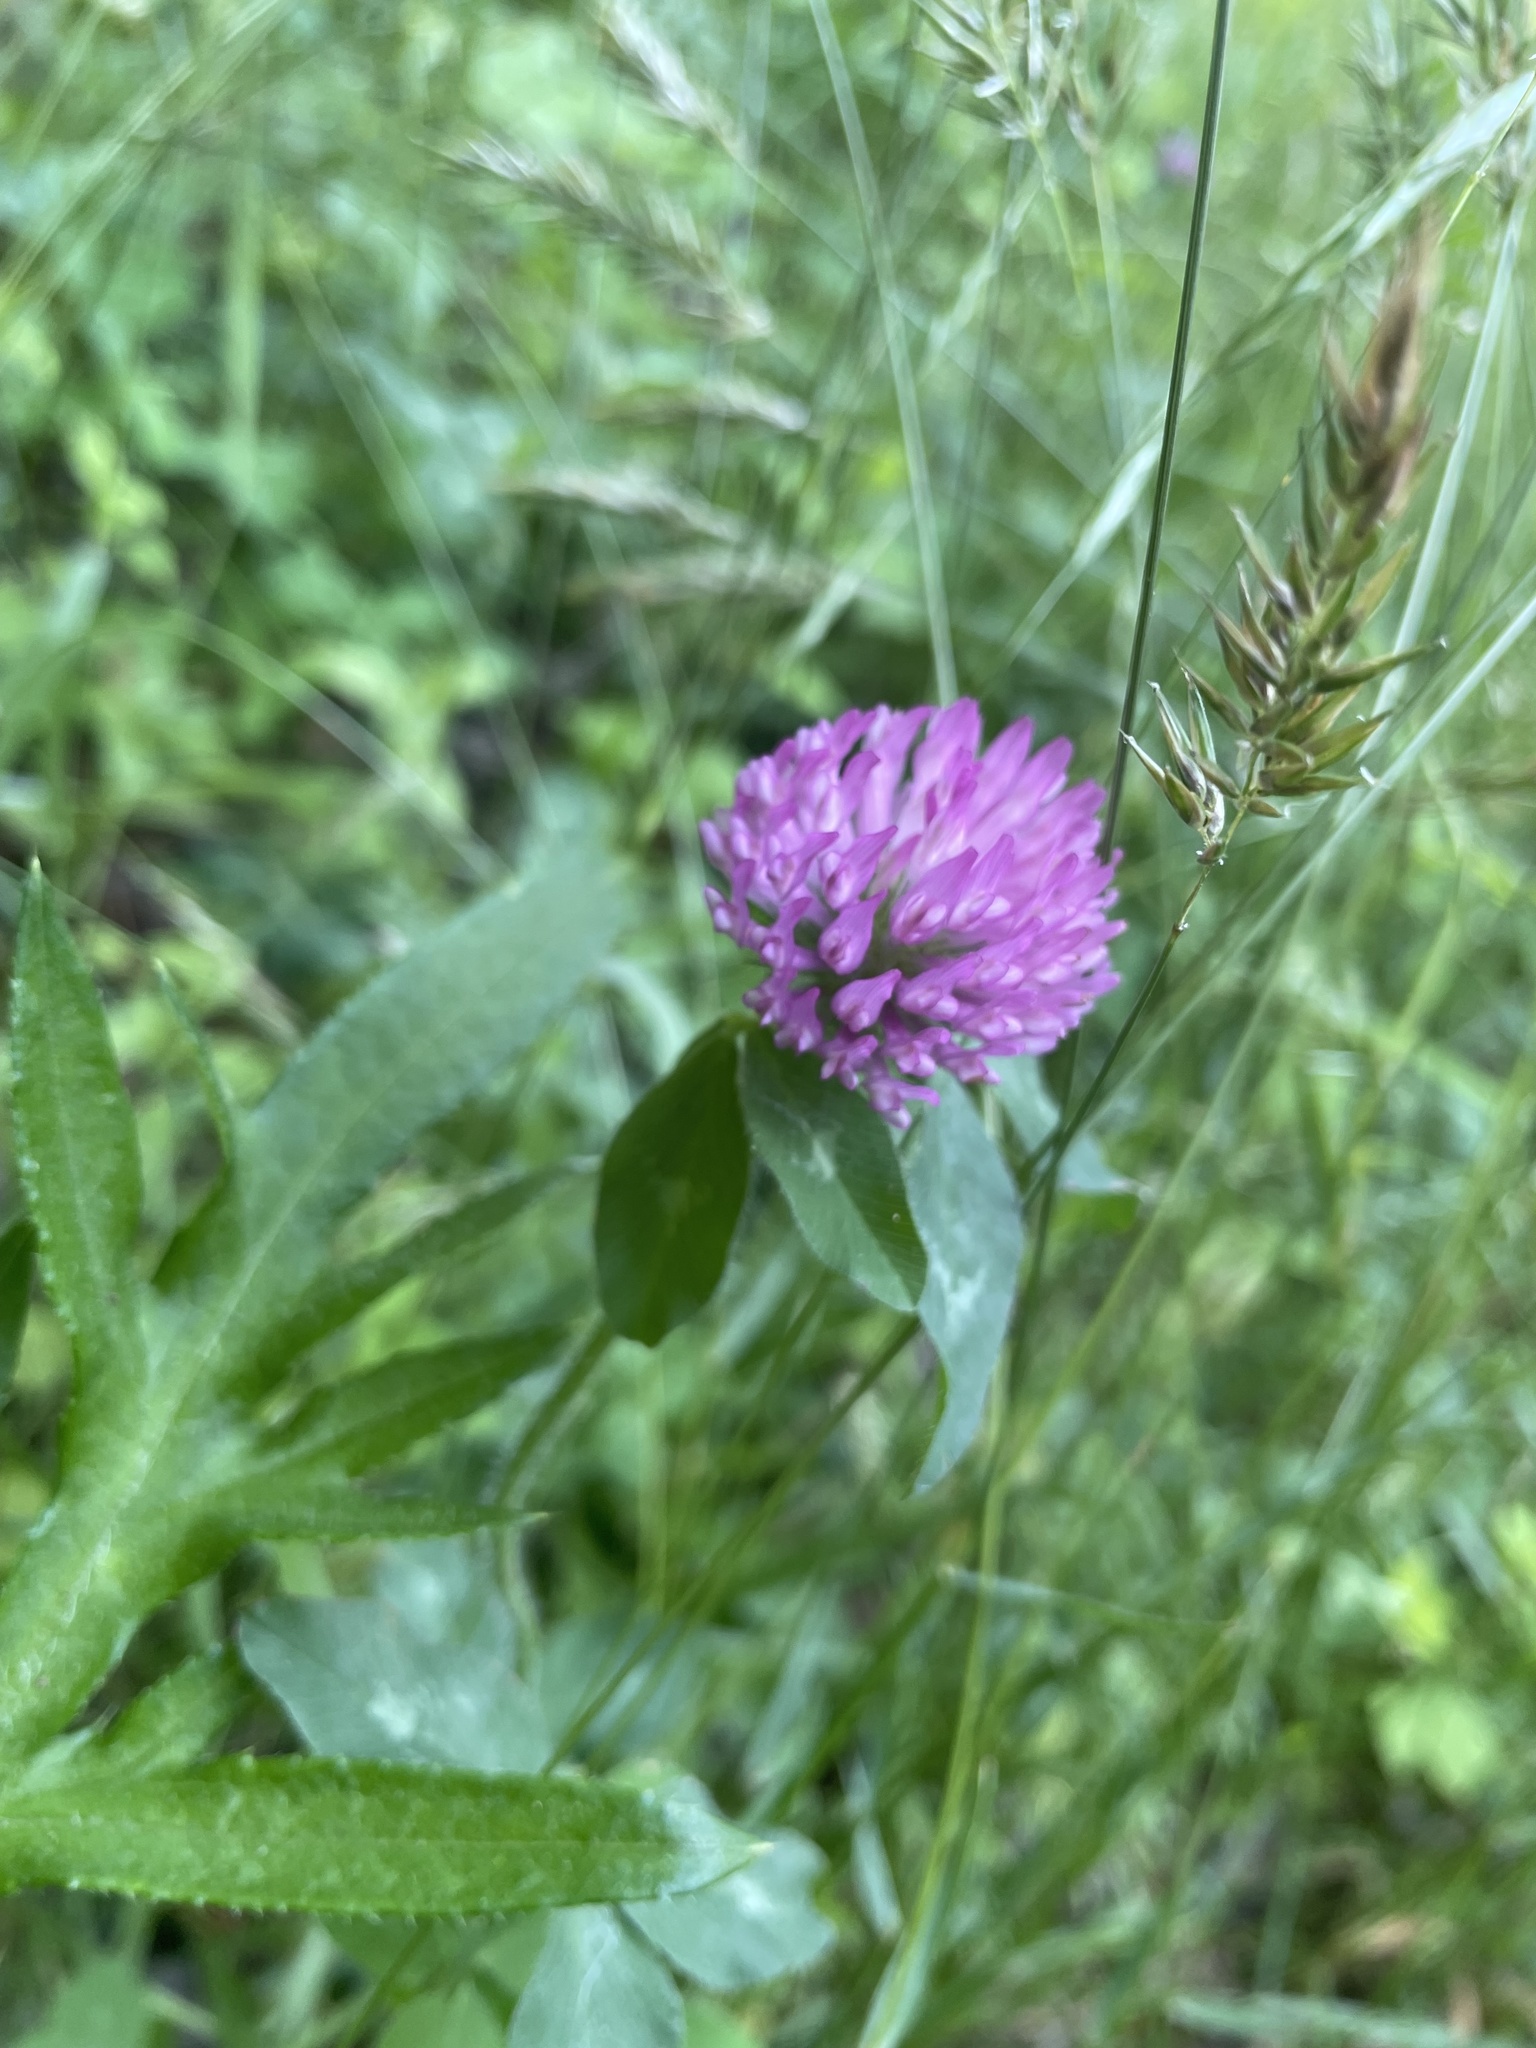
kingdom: Plantae
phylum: Tracheophyta
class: Magnoliopsida
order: Fabales
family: Fabaceae
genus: Trifolium
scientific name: Trifolium pratense
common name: Red clover
